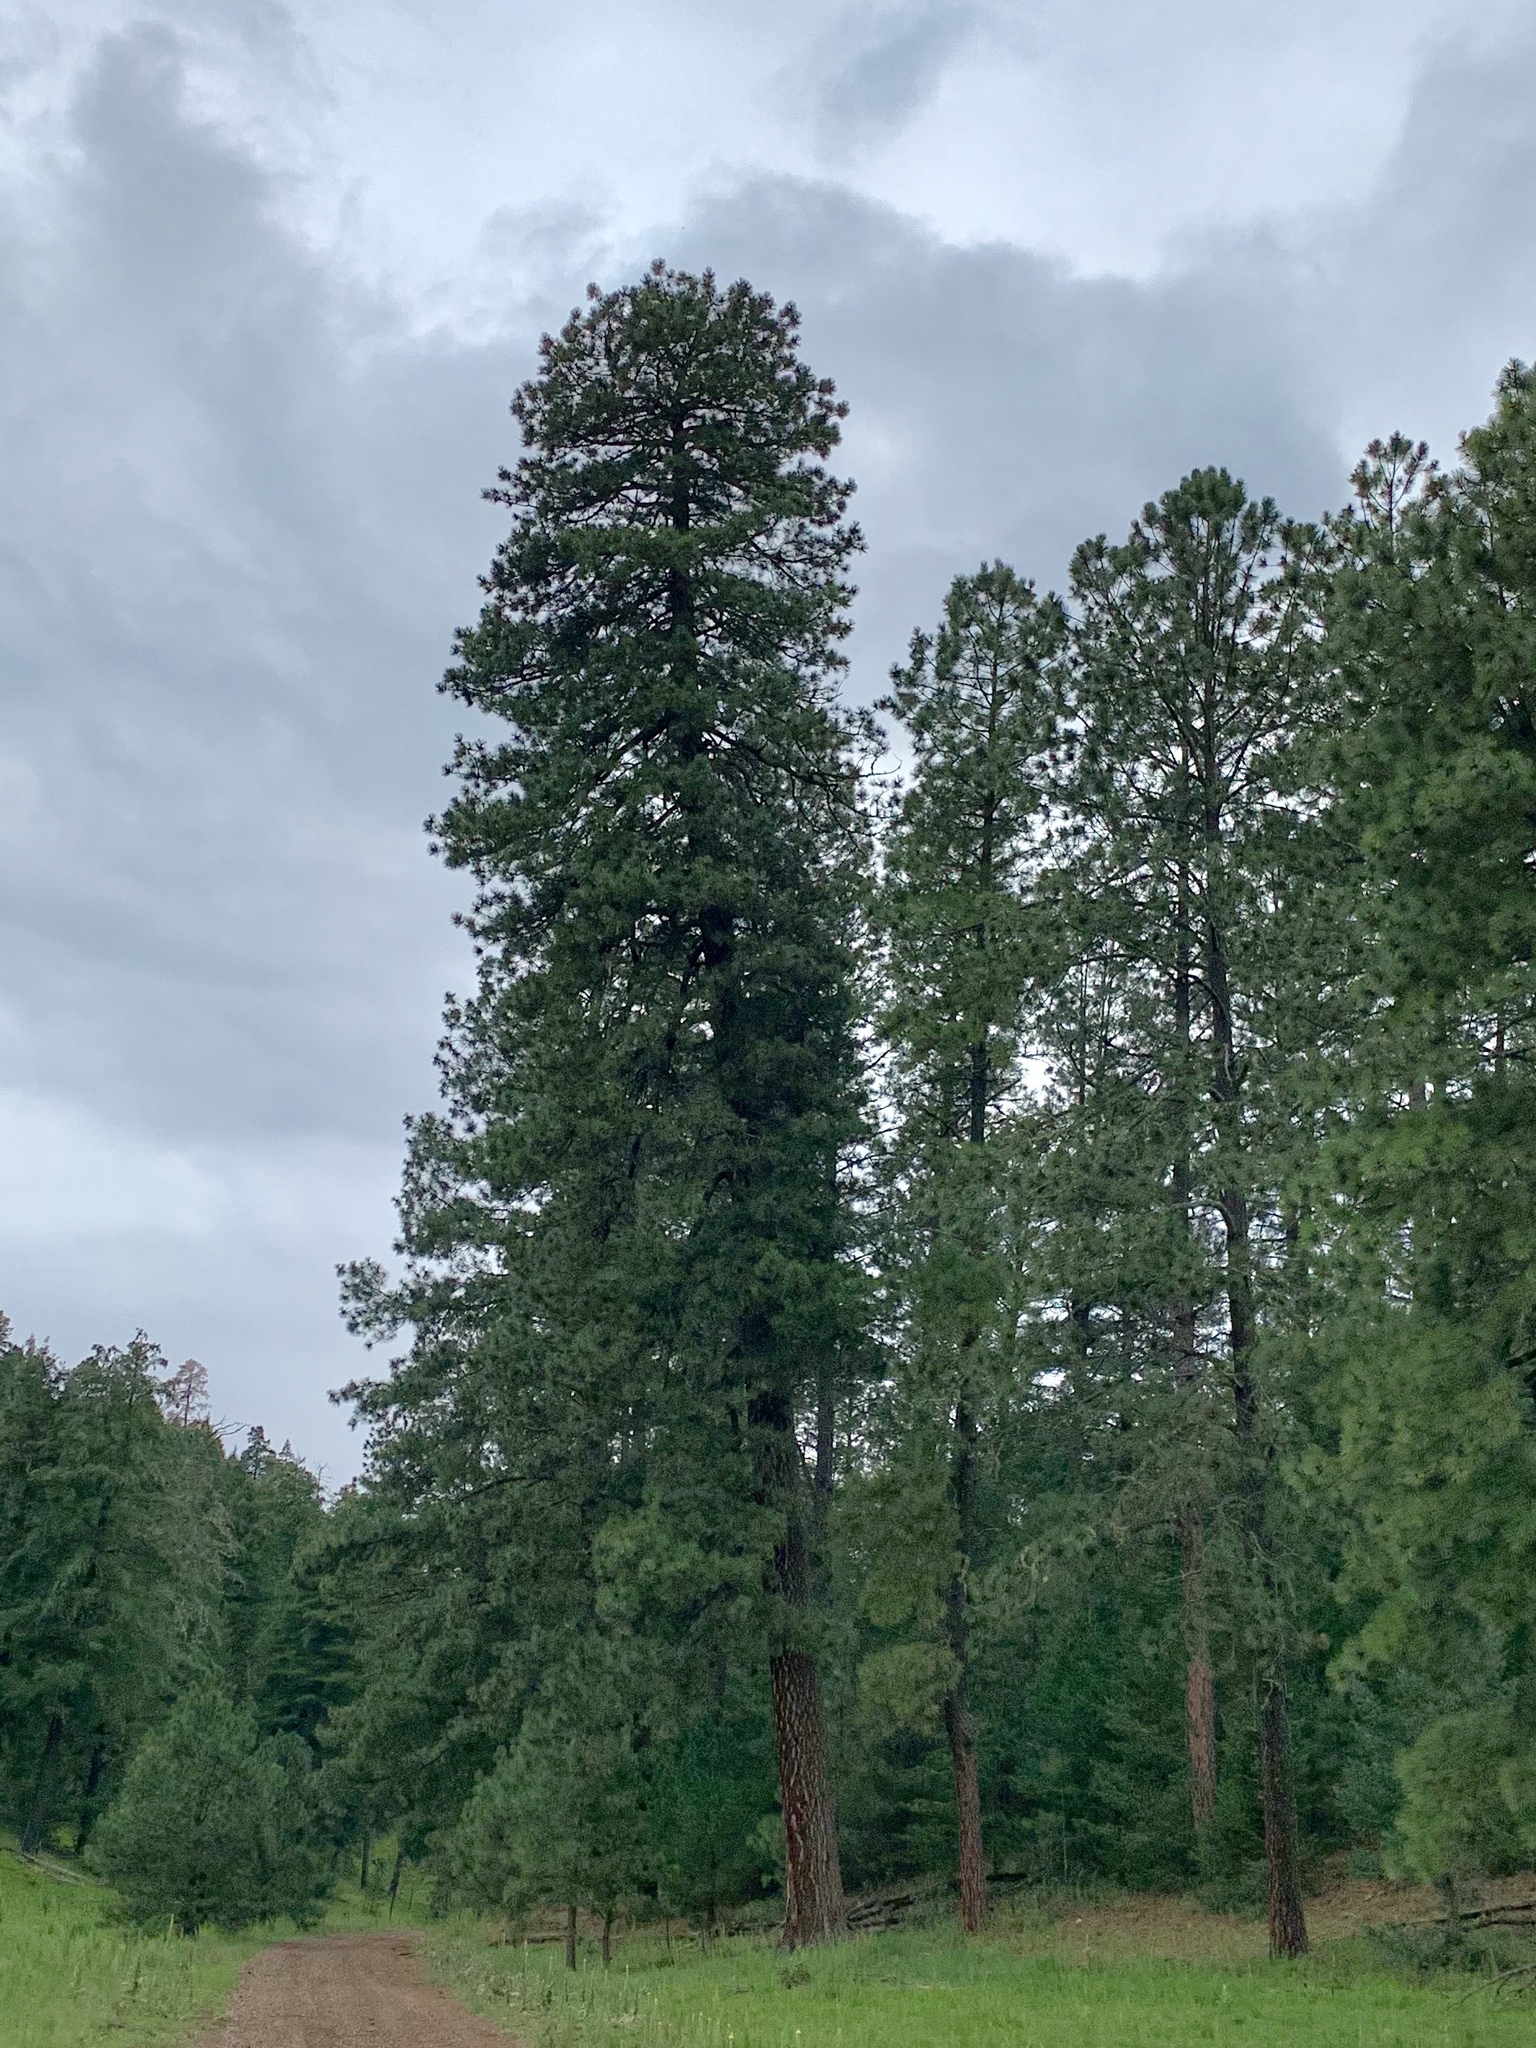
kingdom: Plantae
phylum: Tracheophyta
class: Pinopsida
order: Pinales
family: Pinaceae
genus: Pinus
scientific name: Pinus ponderosa
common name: Western yellow-pine
